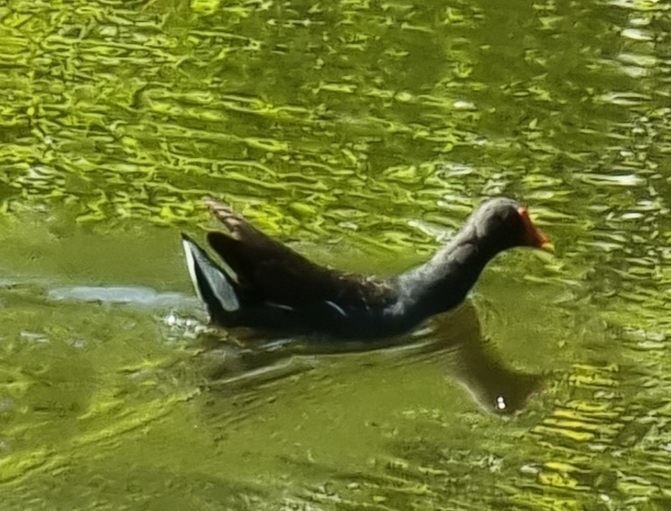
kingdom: Animalia
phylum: Chordata
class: Aves
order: Gruiformes
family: Rallidae
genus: Gallinula
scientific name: Gallinula chloropus
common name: Common moorhen
